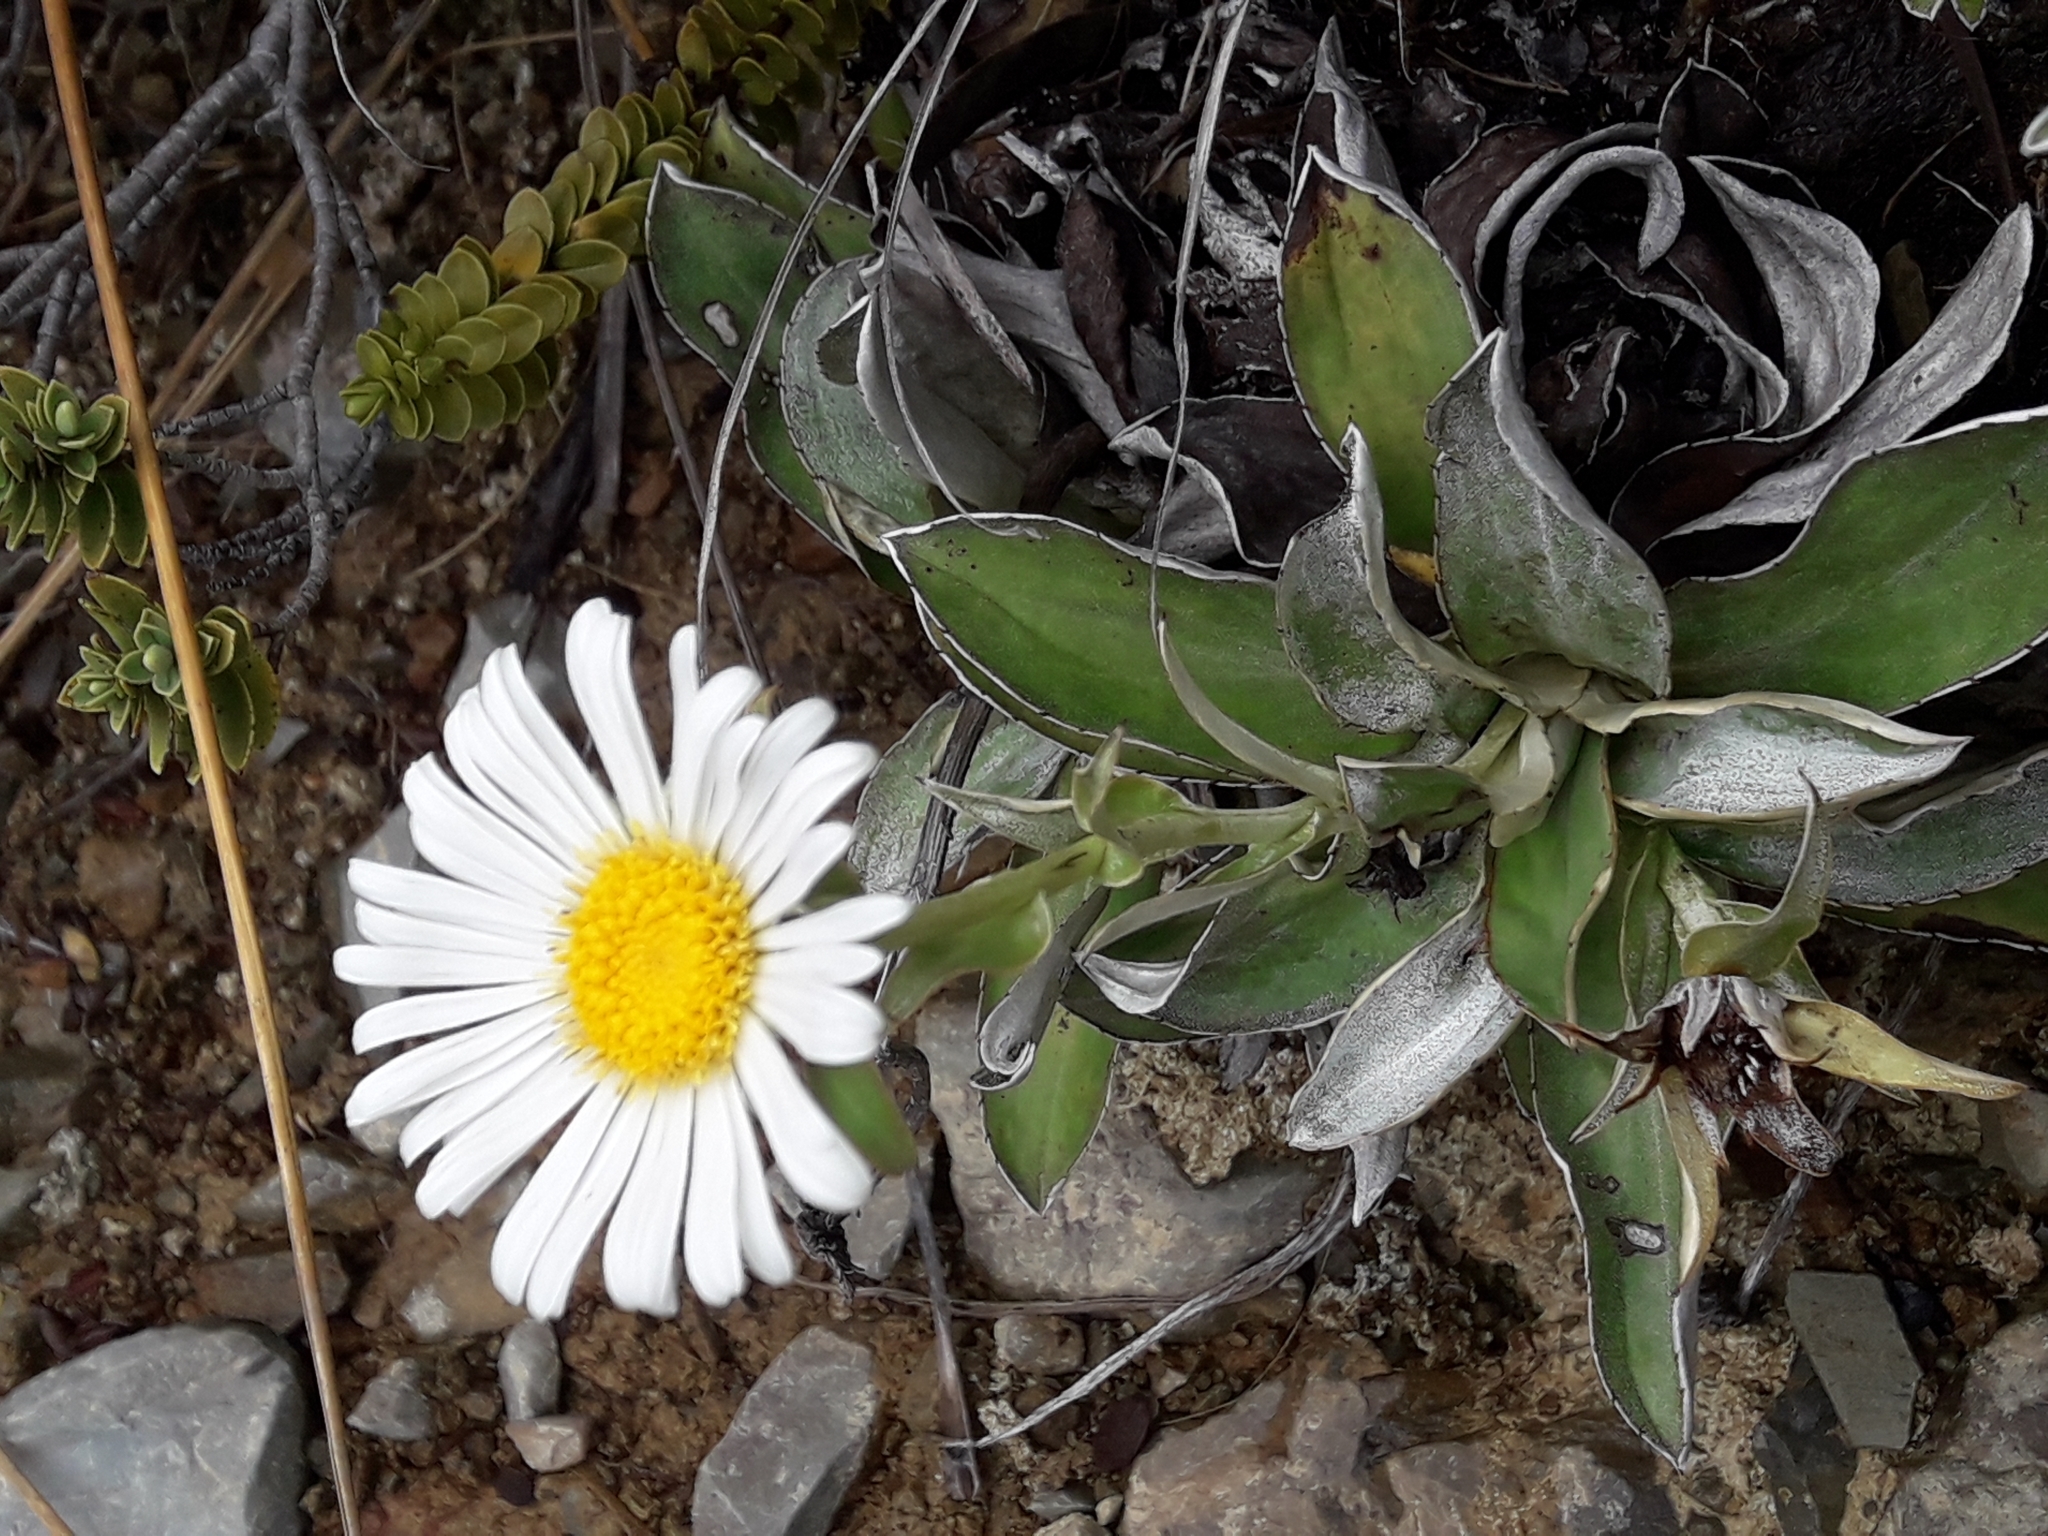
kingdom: Plantae
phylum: Tracheophyta
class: Magnoliopsida
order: Asterales
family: Asteraceae
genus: Celmisia
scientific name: Celmisia dallii
